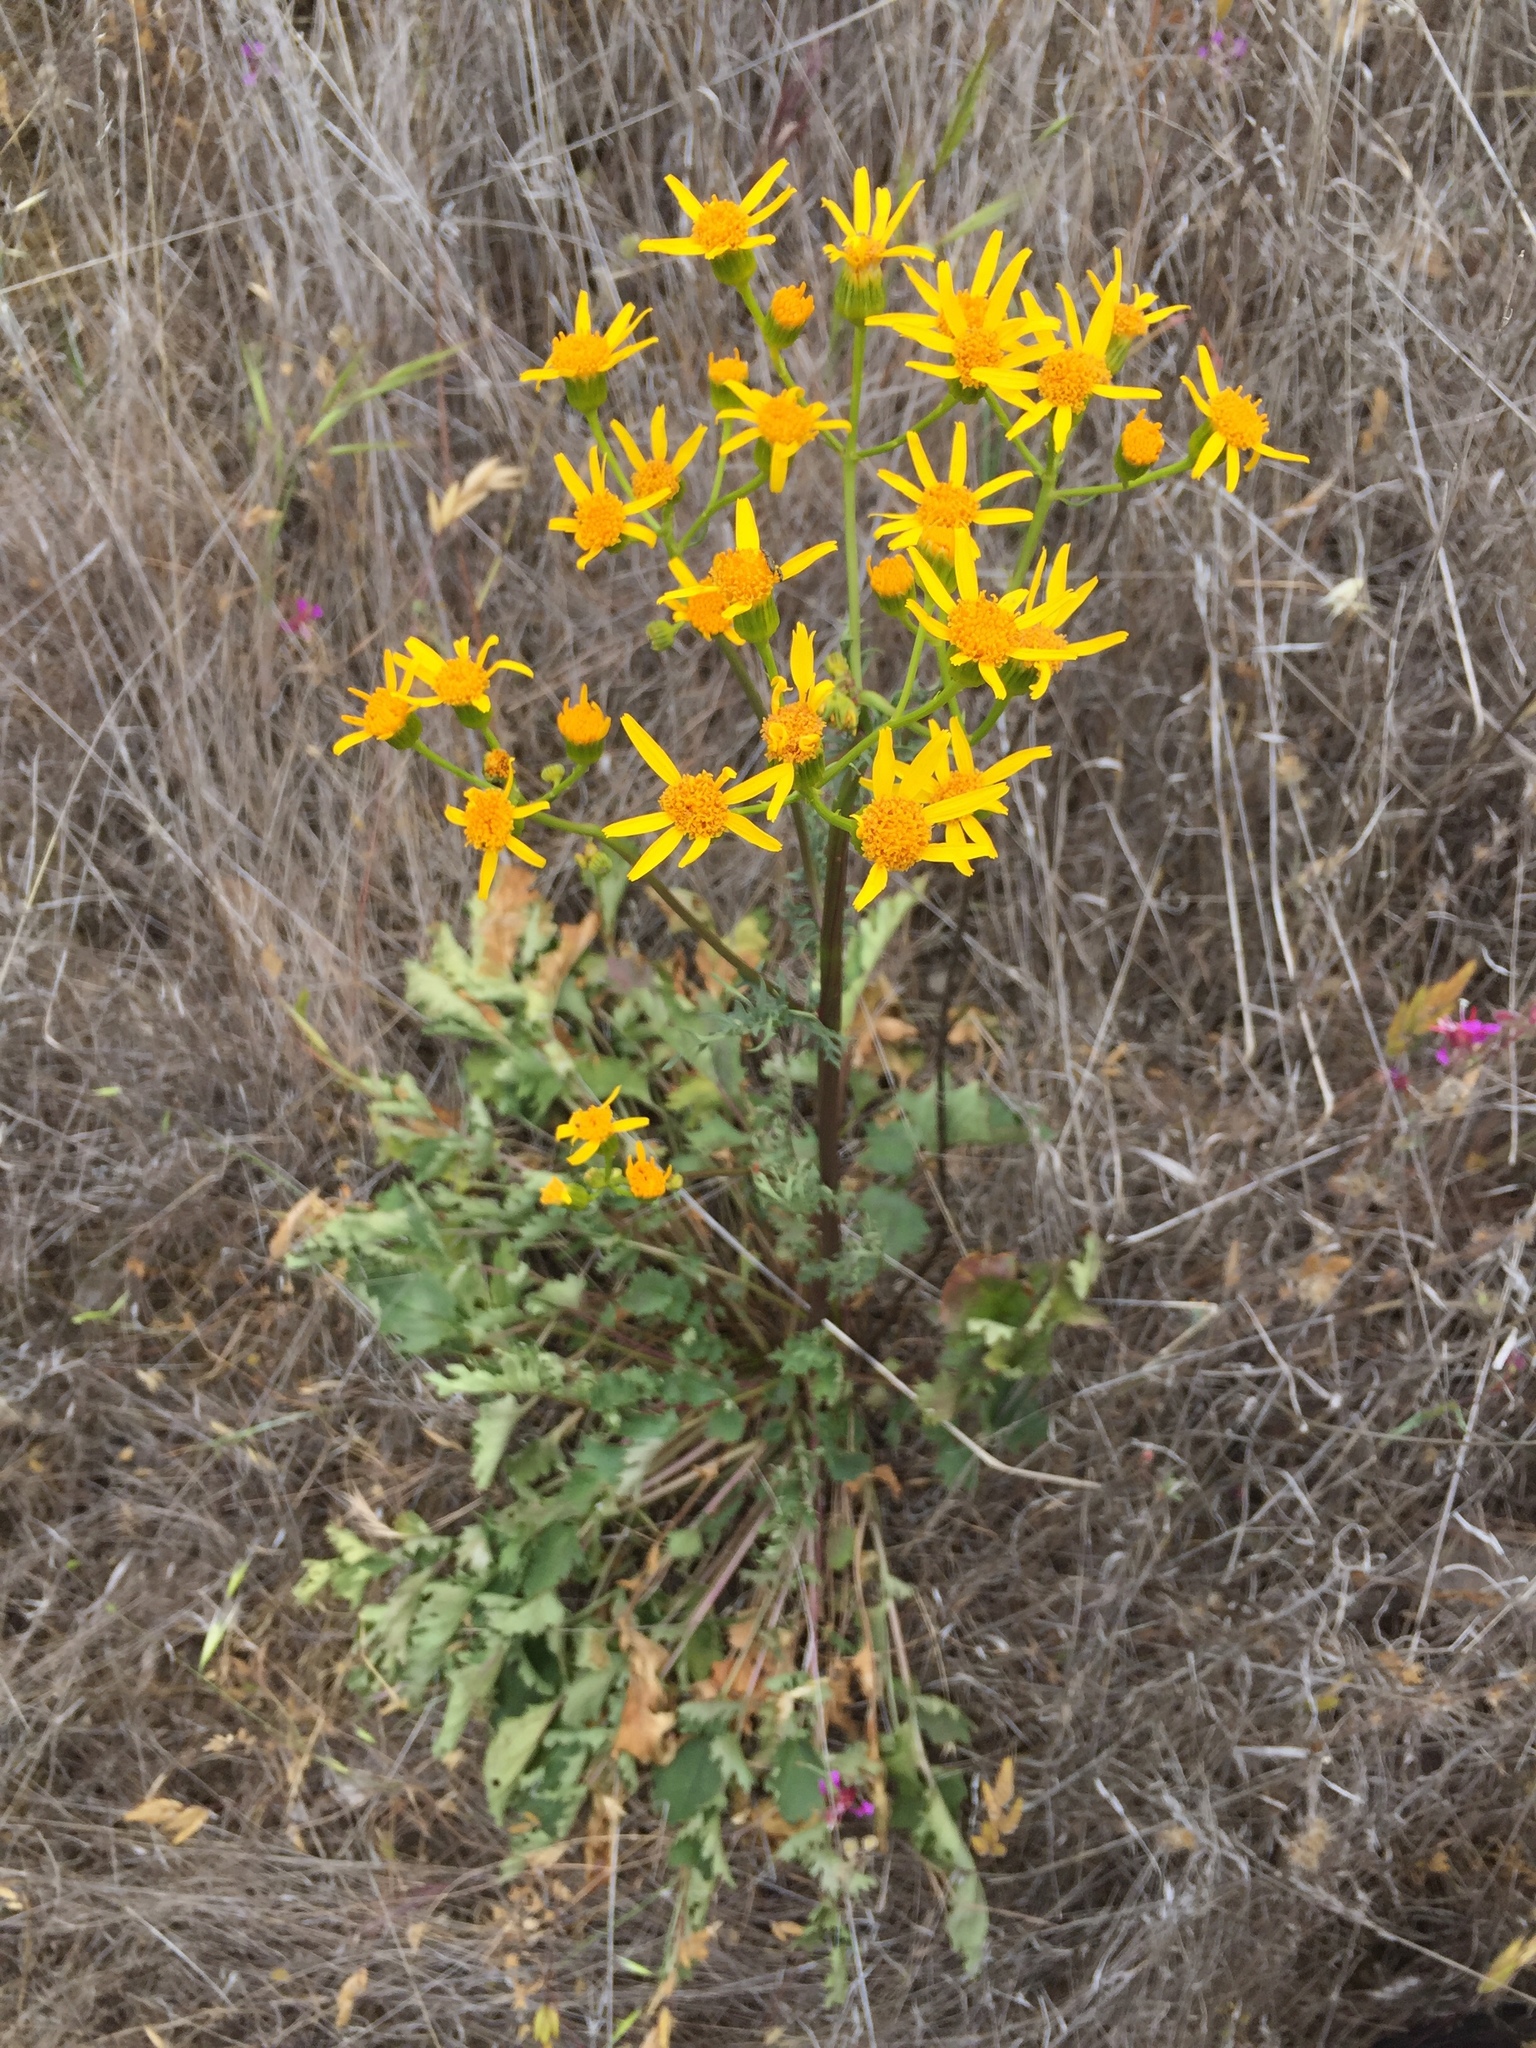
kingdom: Plantae
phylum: Tracheophyta
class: Magnoliopsida
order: Asterales
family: Asteraceae
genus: Packera
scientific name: Packera breweri
